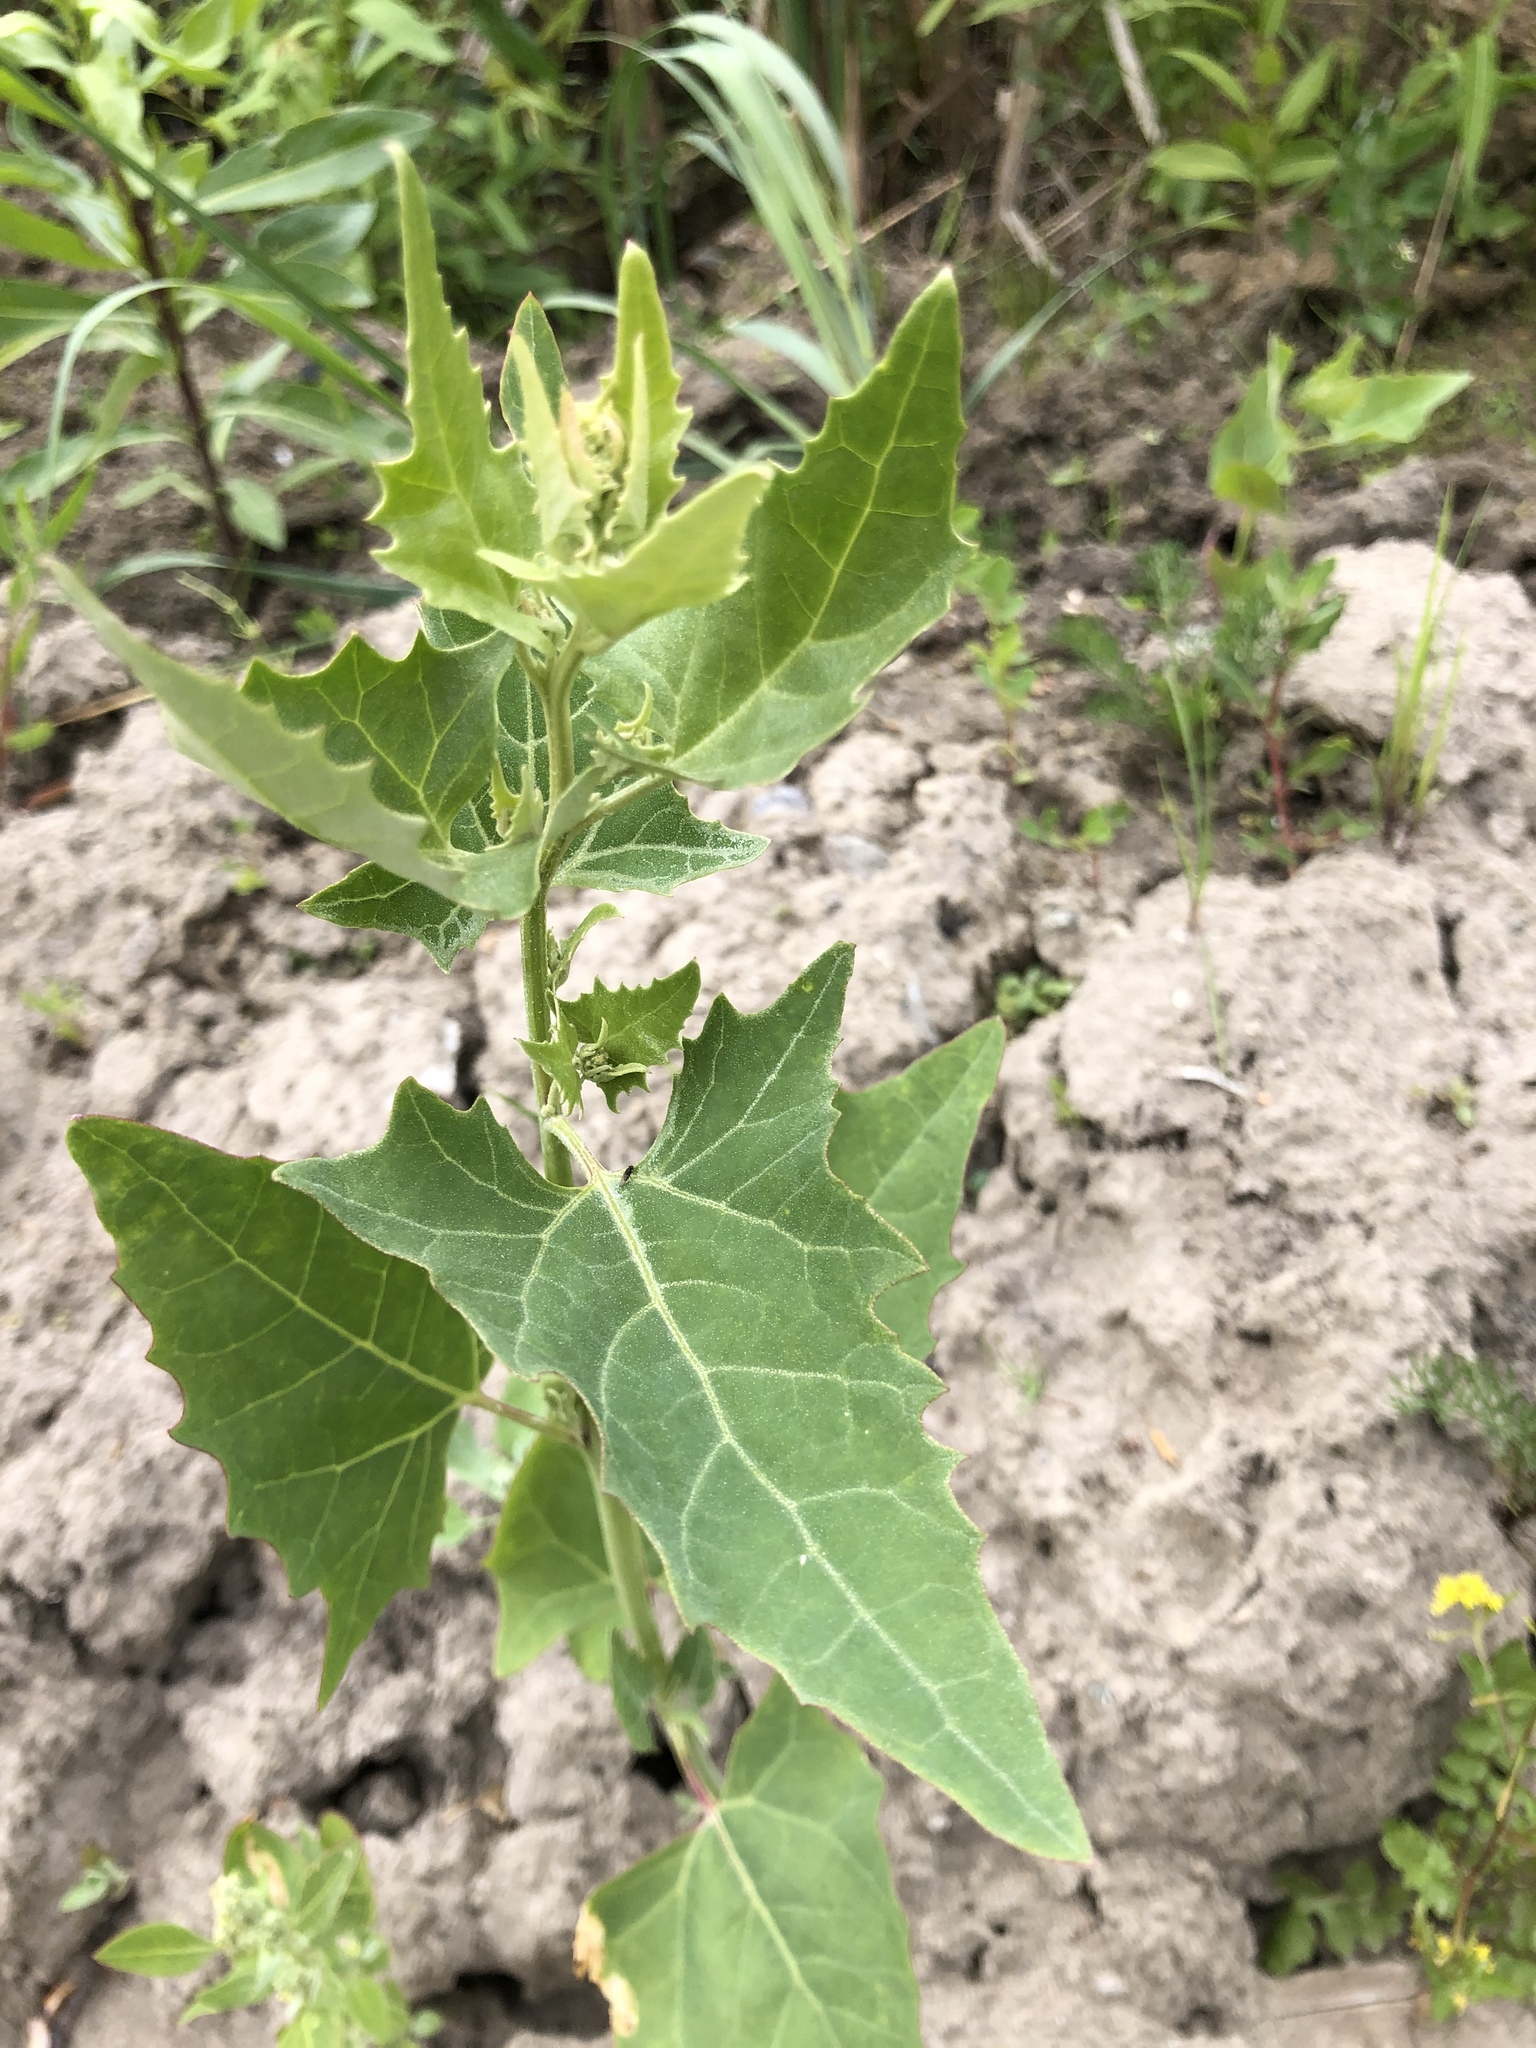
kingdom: Plantae
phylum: Tracheophyta
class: Magnoliopsida
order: Caryophyllales
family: Amaranthaceae
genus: Atriplex
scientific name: Atriplex sagittata
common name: Purple orache
